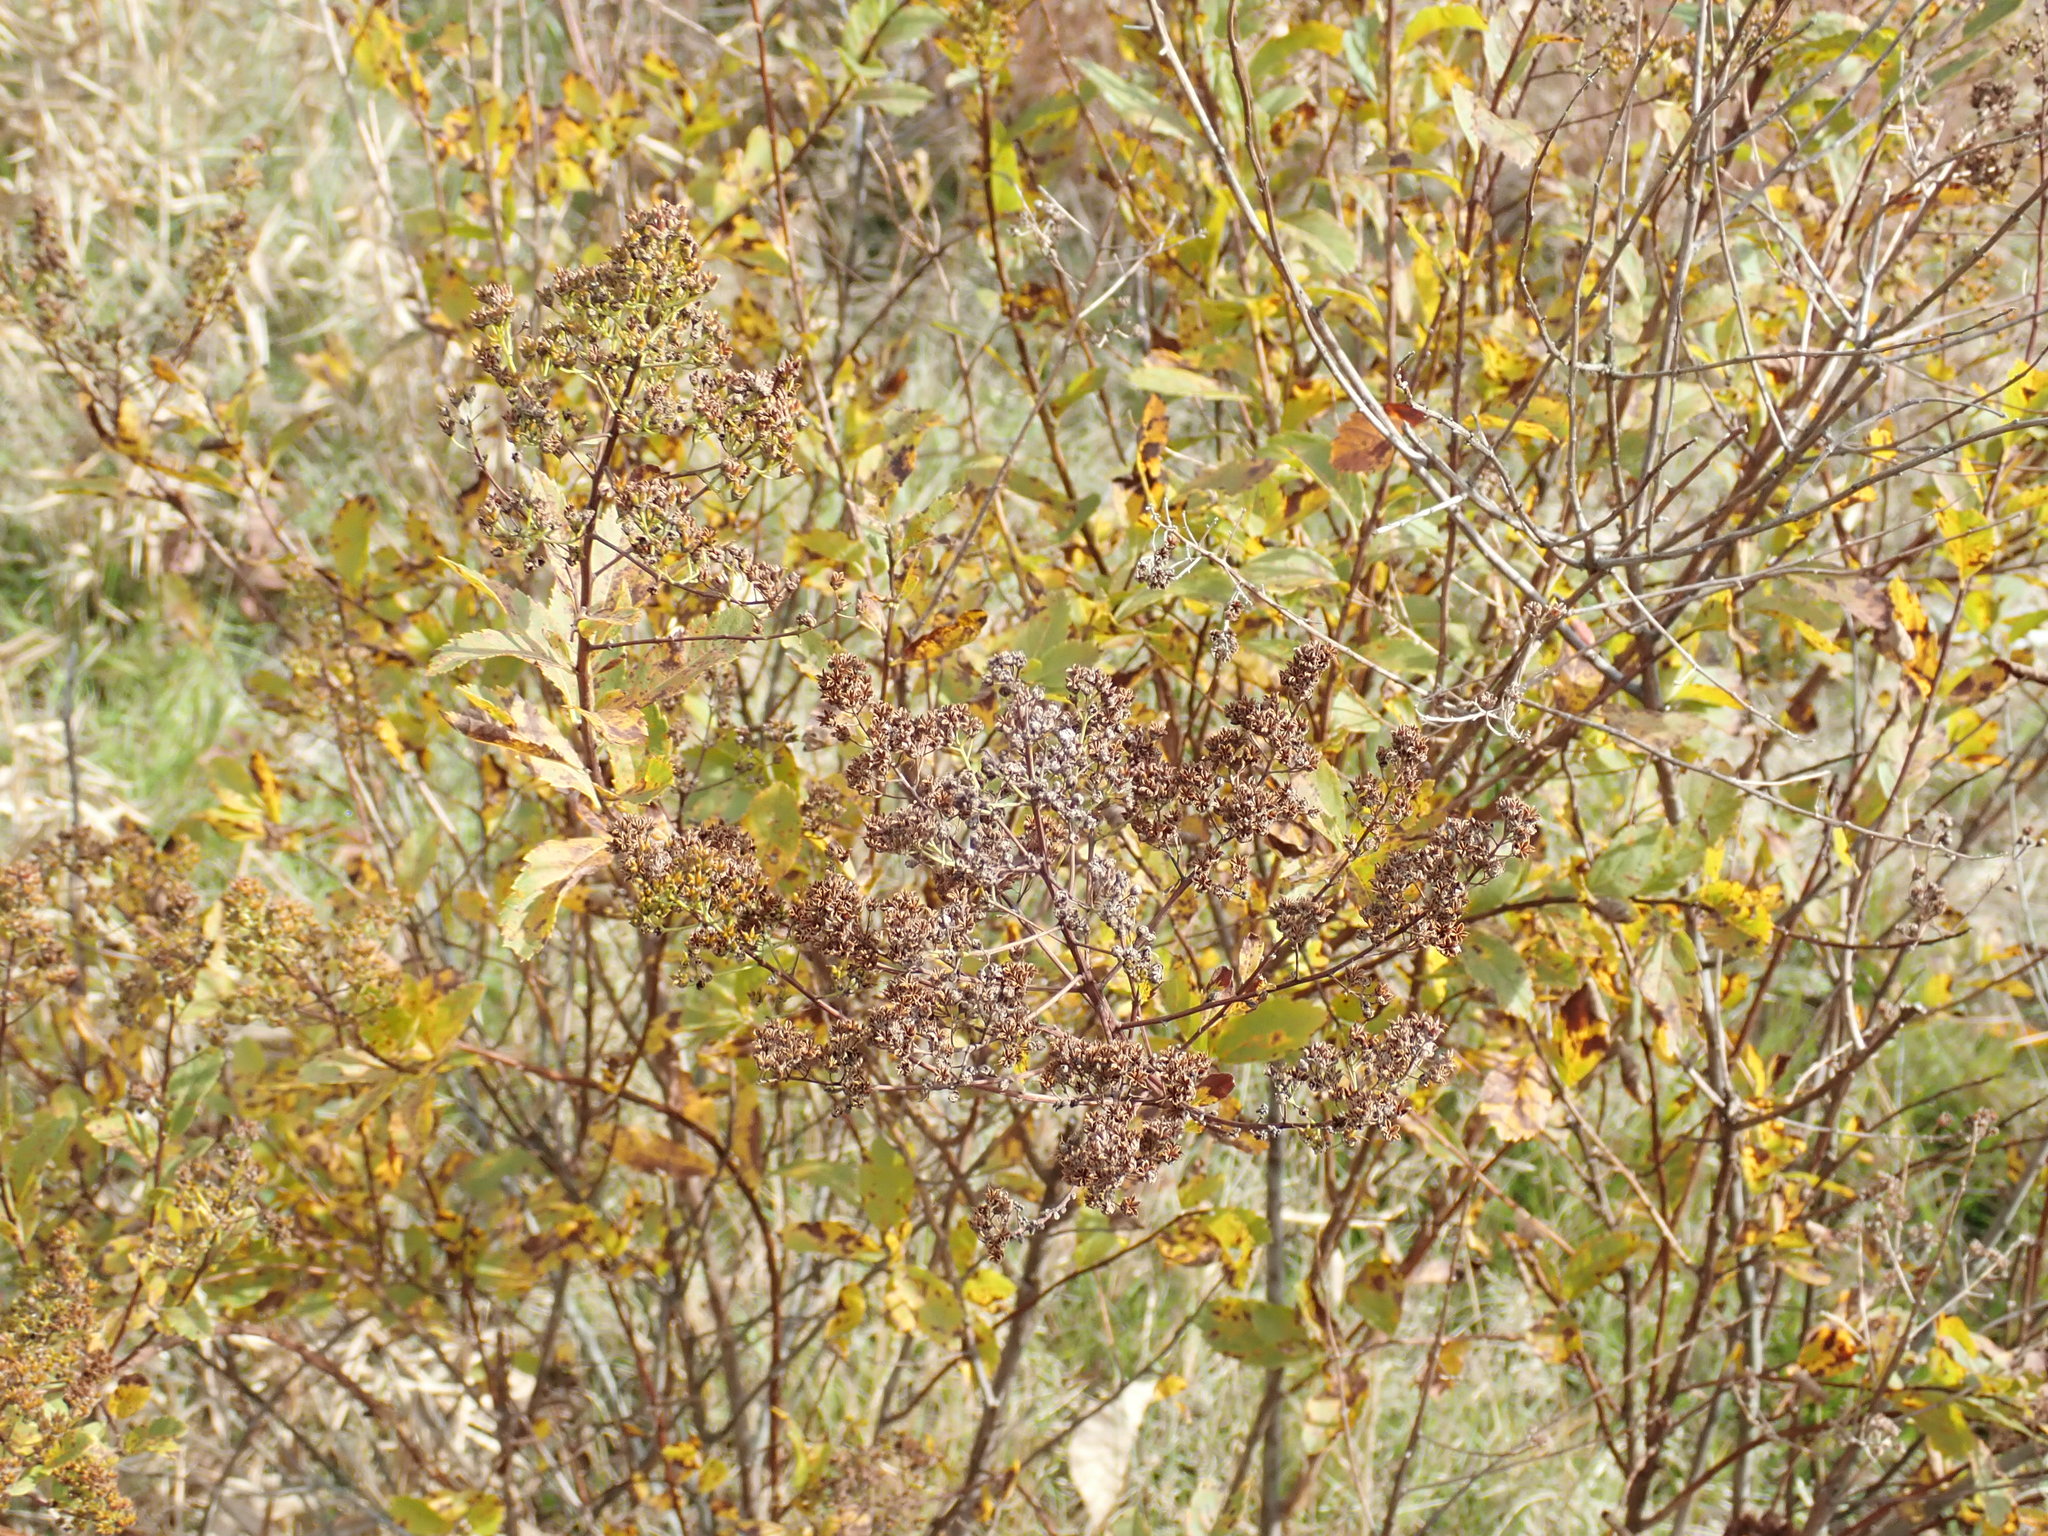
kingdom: Plantae
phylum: Tracheophyta
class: Magnoliopsida
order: Rosales
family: Rosaceae
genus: Spiraea
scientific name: Spiraea alba
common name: Pale bridewort
